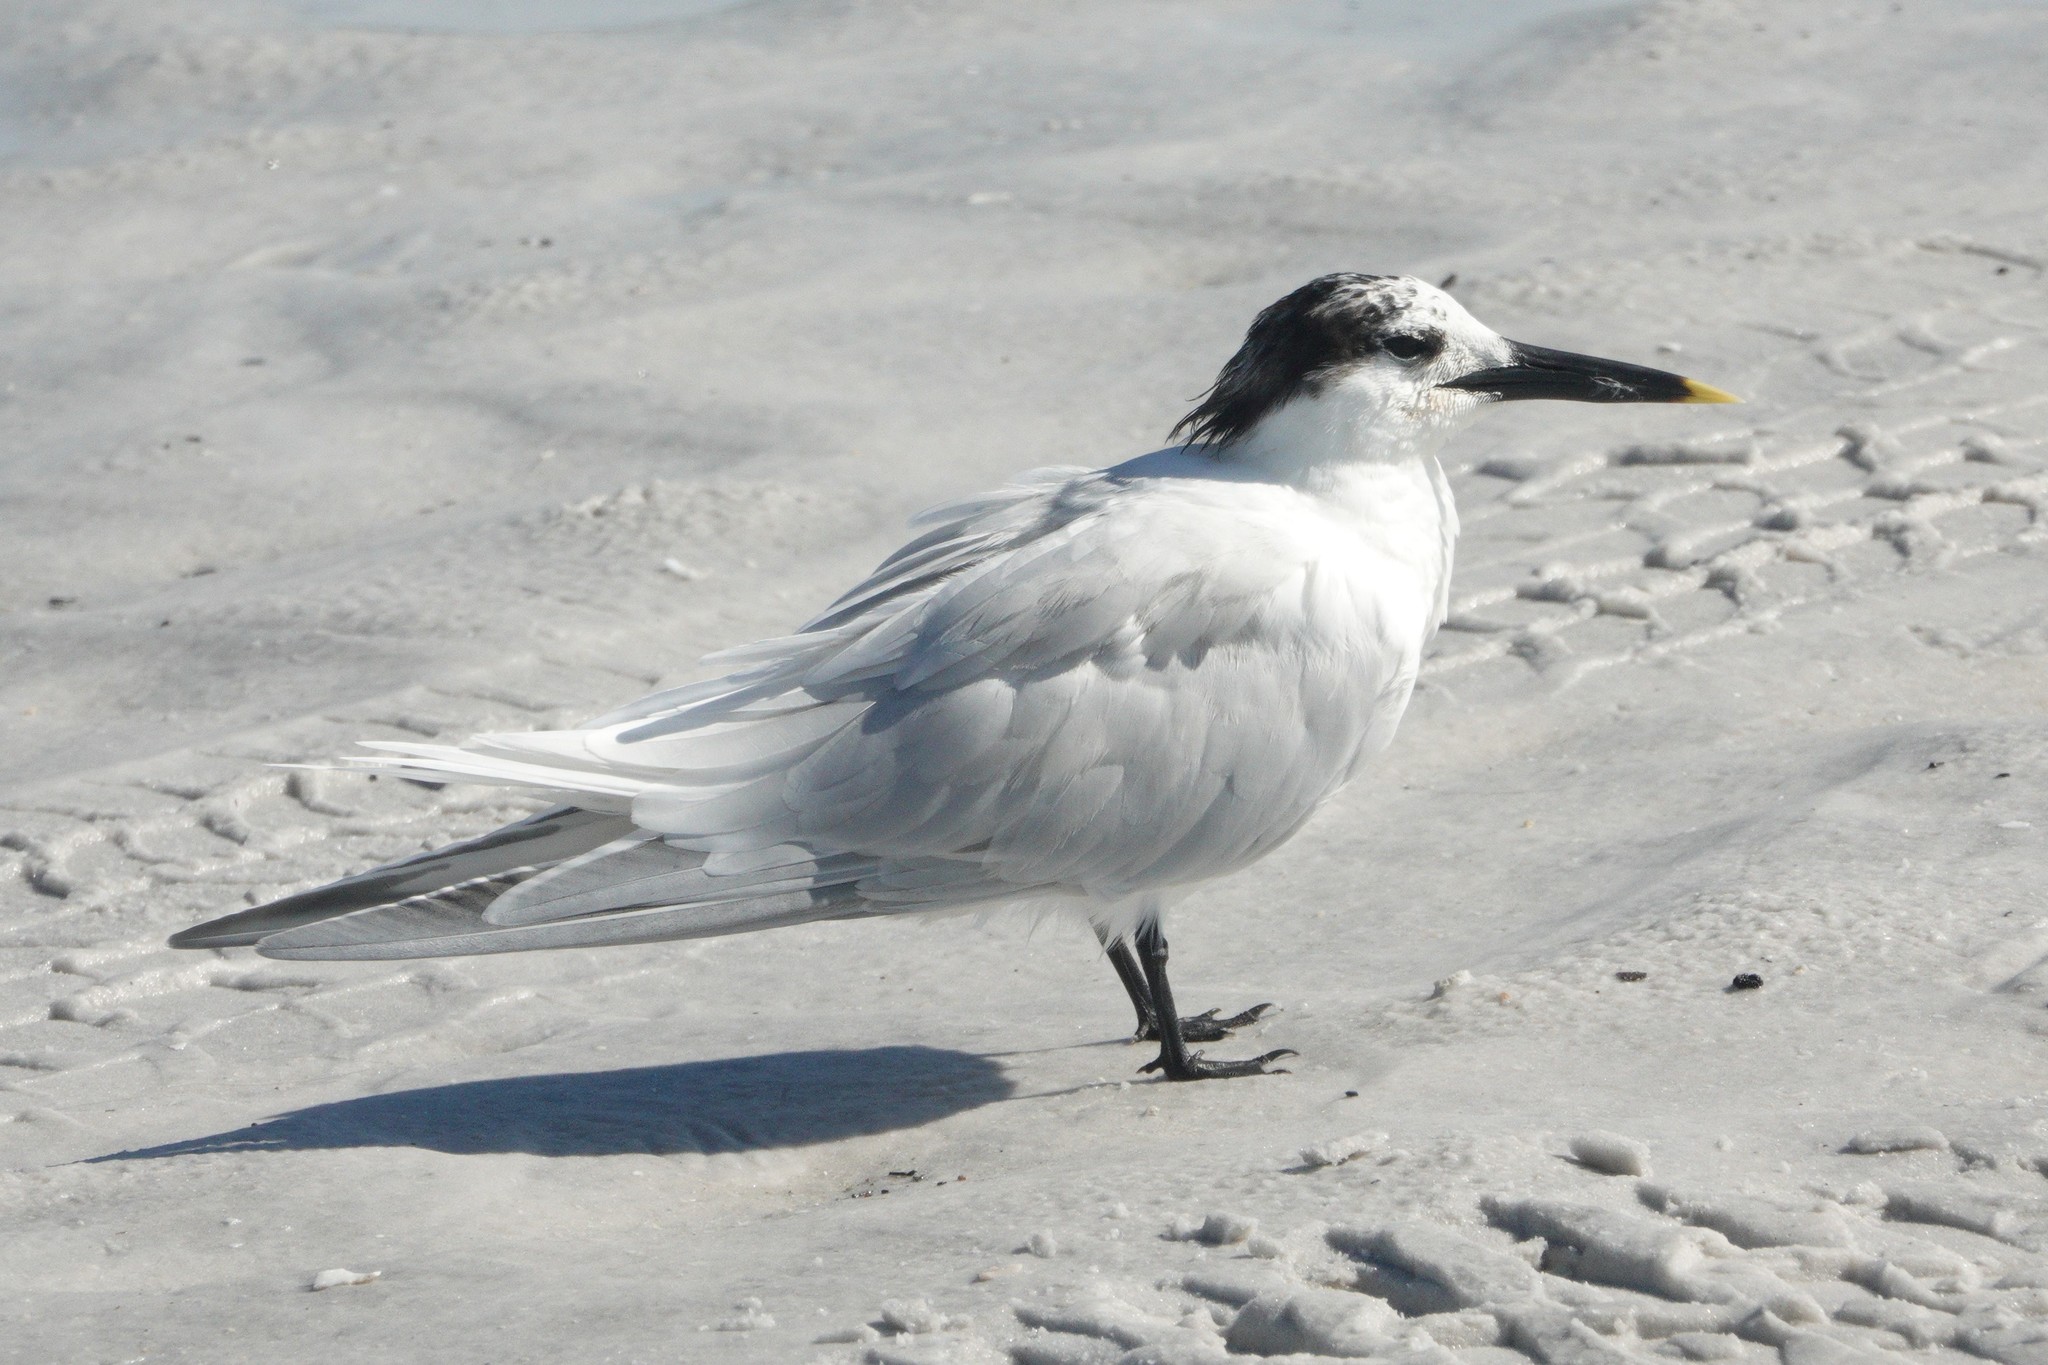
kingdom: Animalia
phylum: Chordata
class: Aves
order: Charadriiformes
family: Laridae
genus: Thalasseus
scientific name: Thalasseus sandvicensis
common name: Sandwich tern
